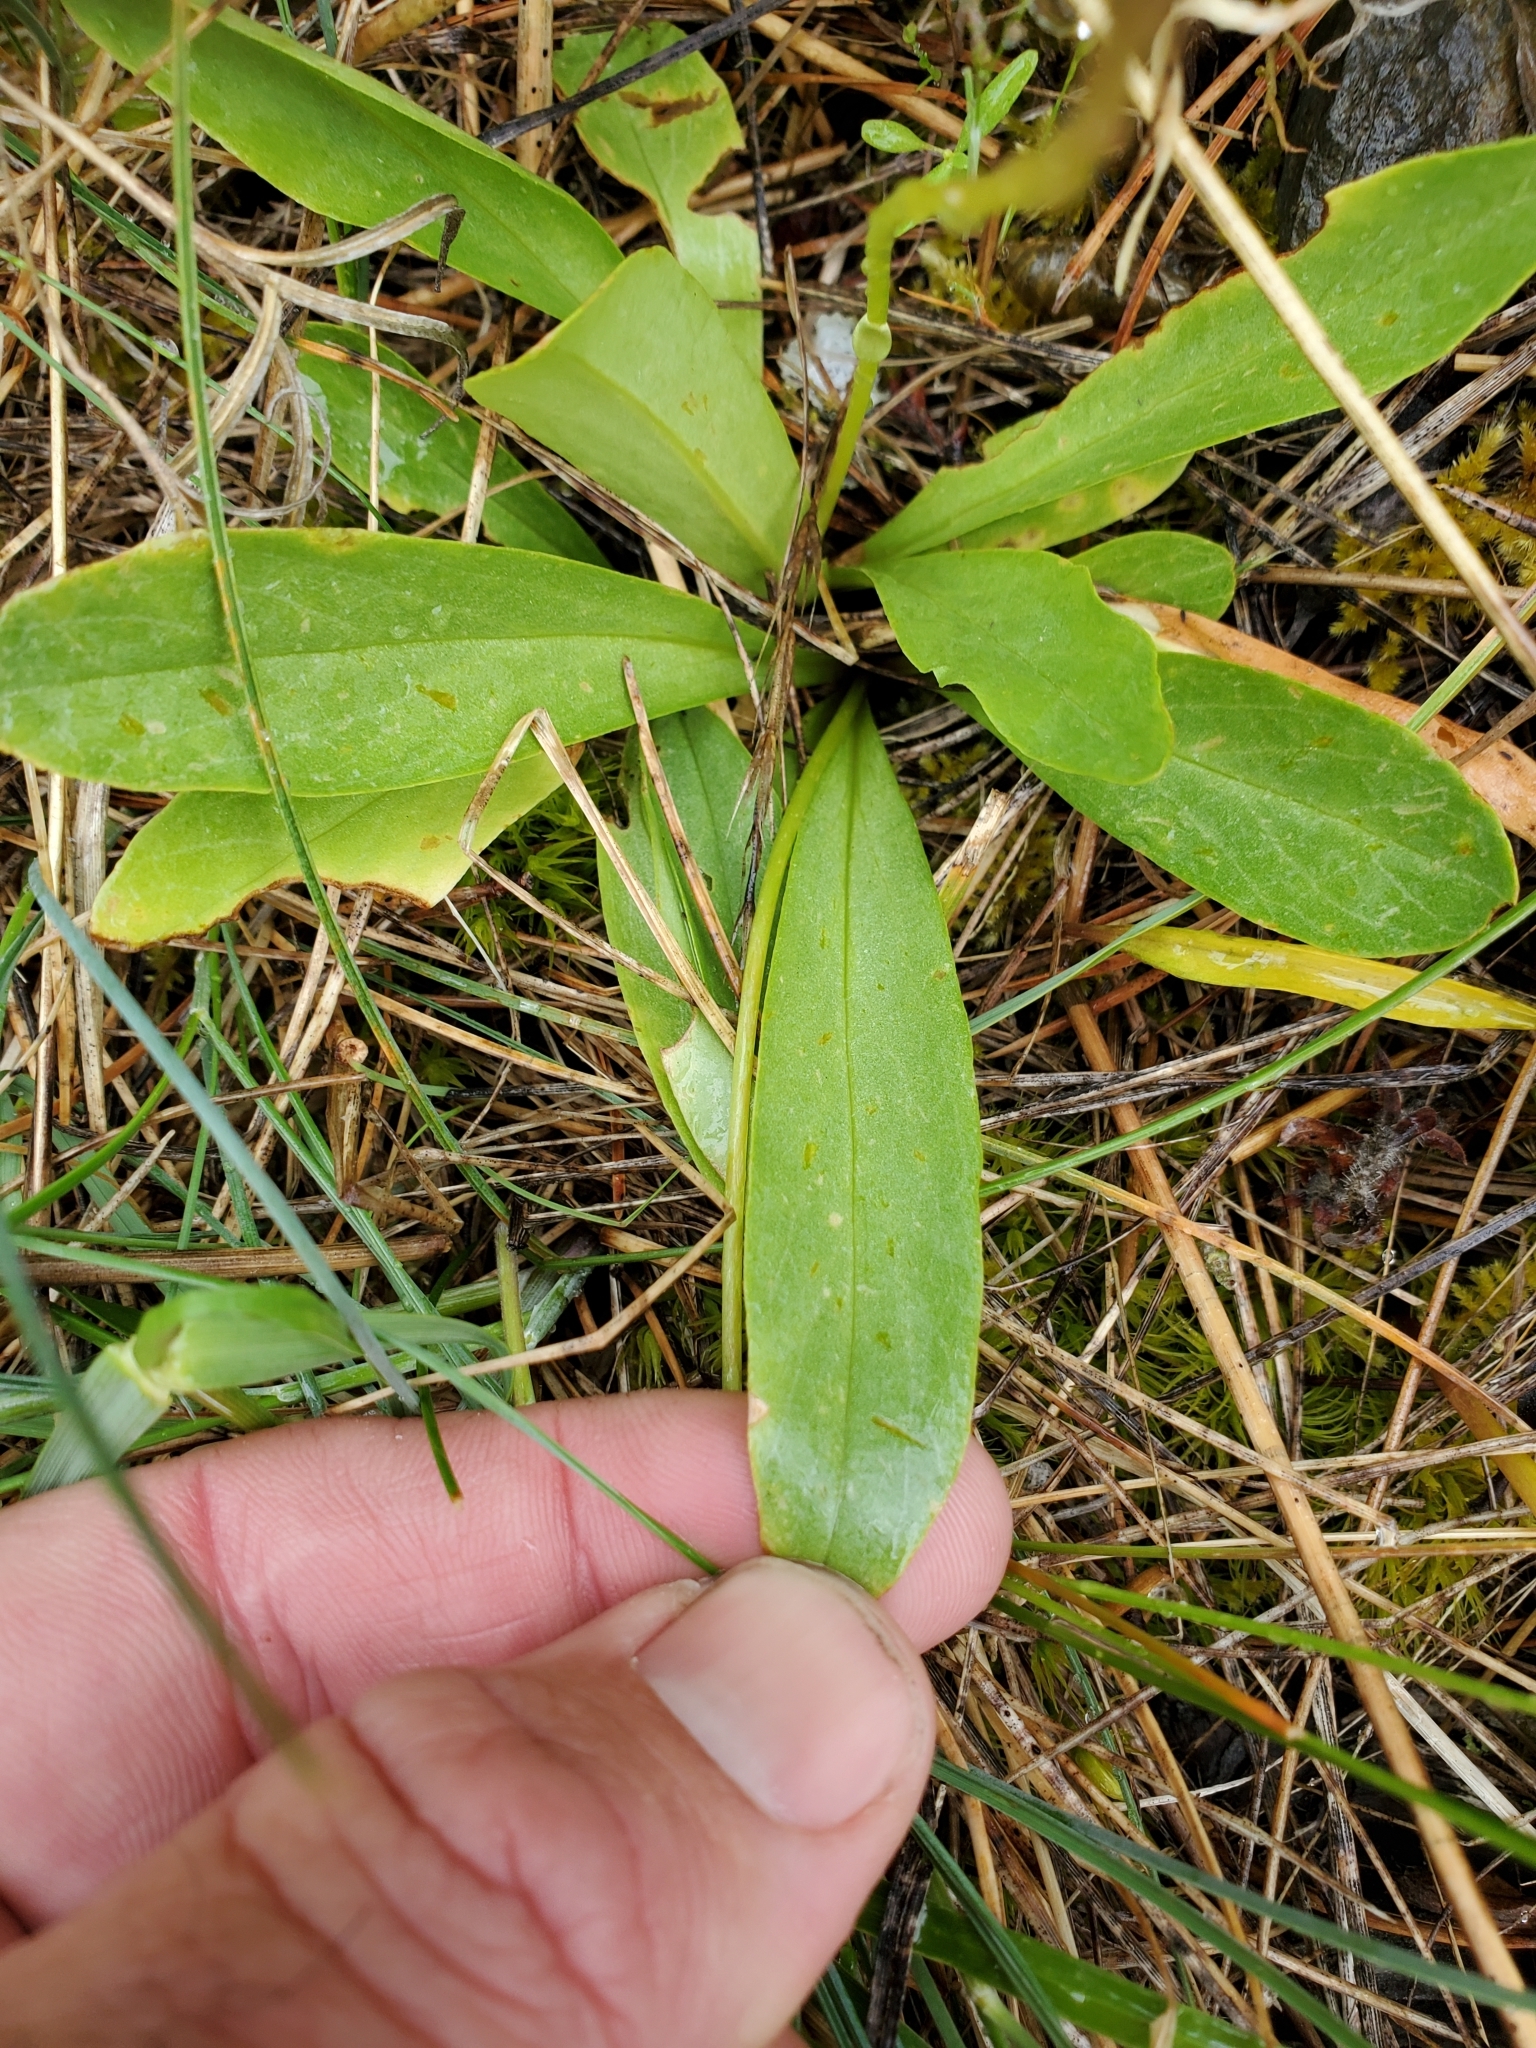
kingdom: Plantae
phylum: Tracheophyta
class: Magnoliopsida
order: Ericales
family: Primulaceae
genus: Dodecatheon
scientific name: Dodecatheon pulchellum
